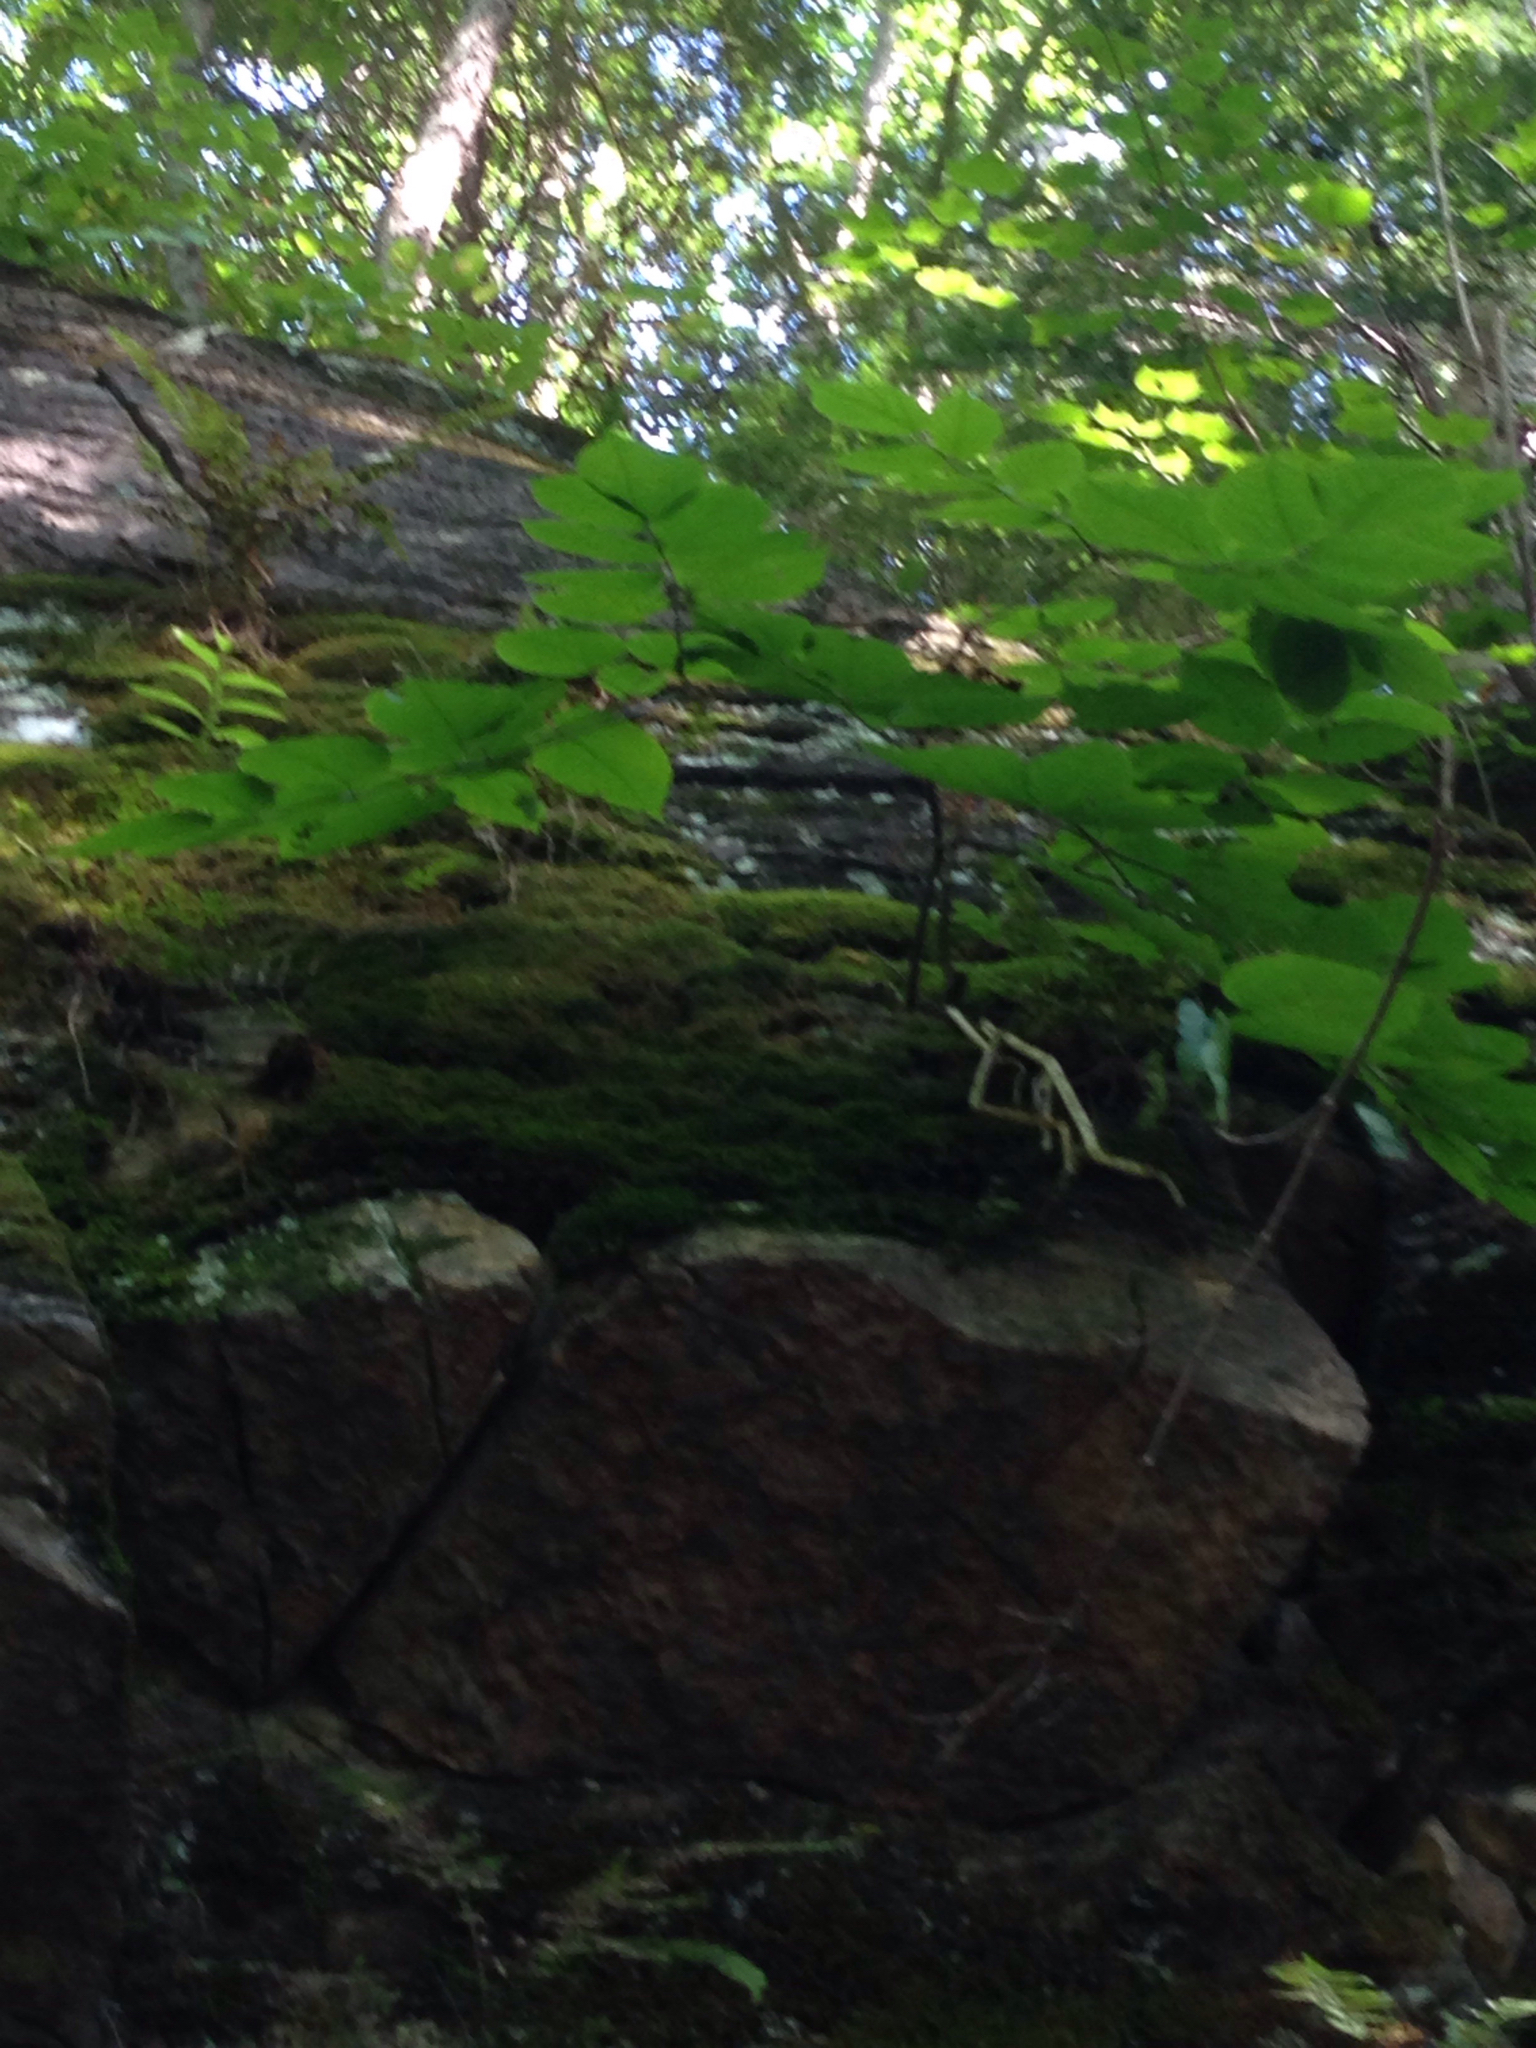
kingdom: Plantae
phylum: Tracheophyta
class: Magnoliopsida
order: Apiales
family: Araliaceae
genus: Aralia
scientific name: Aralia racemosa
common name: American-spikenard
